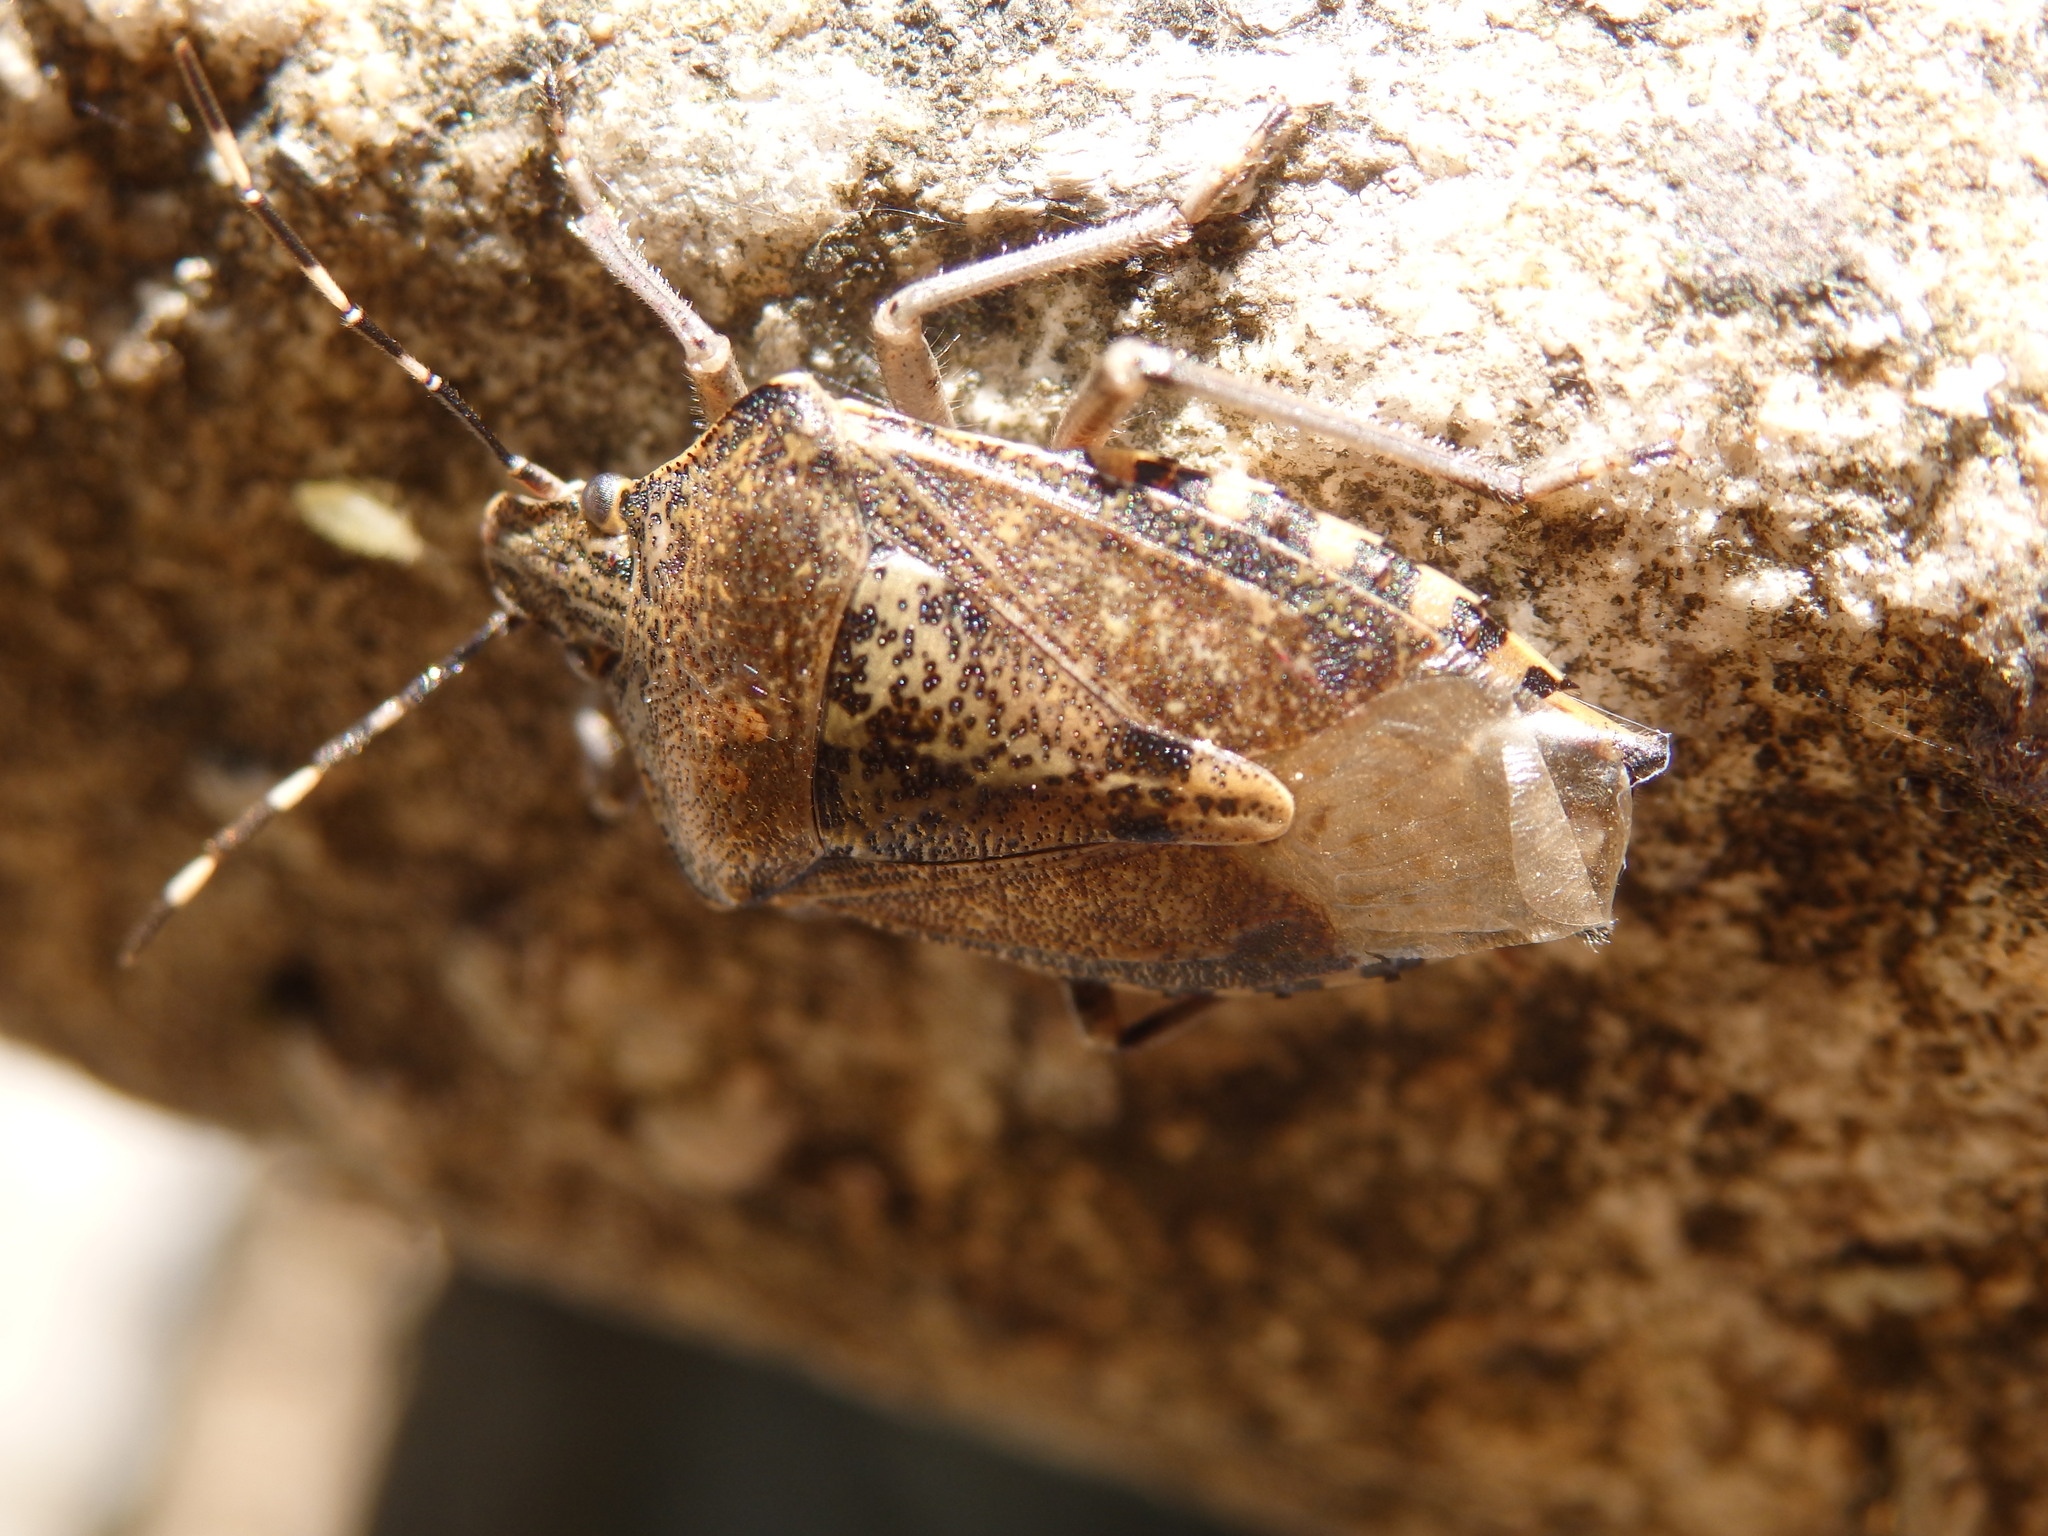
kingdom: Animalia
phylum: Arthropoda
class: Insecta
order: Hemiptera
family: Pentatomidae
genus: Rhaphigaster
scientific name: Rhaphigaster nebulosa
